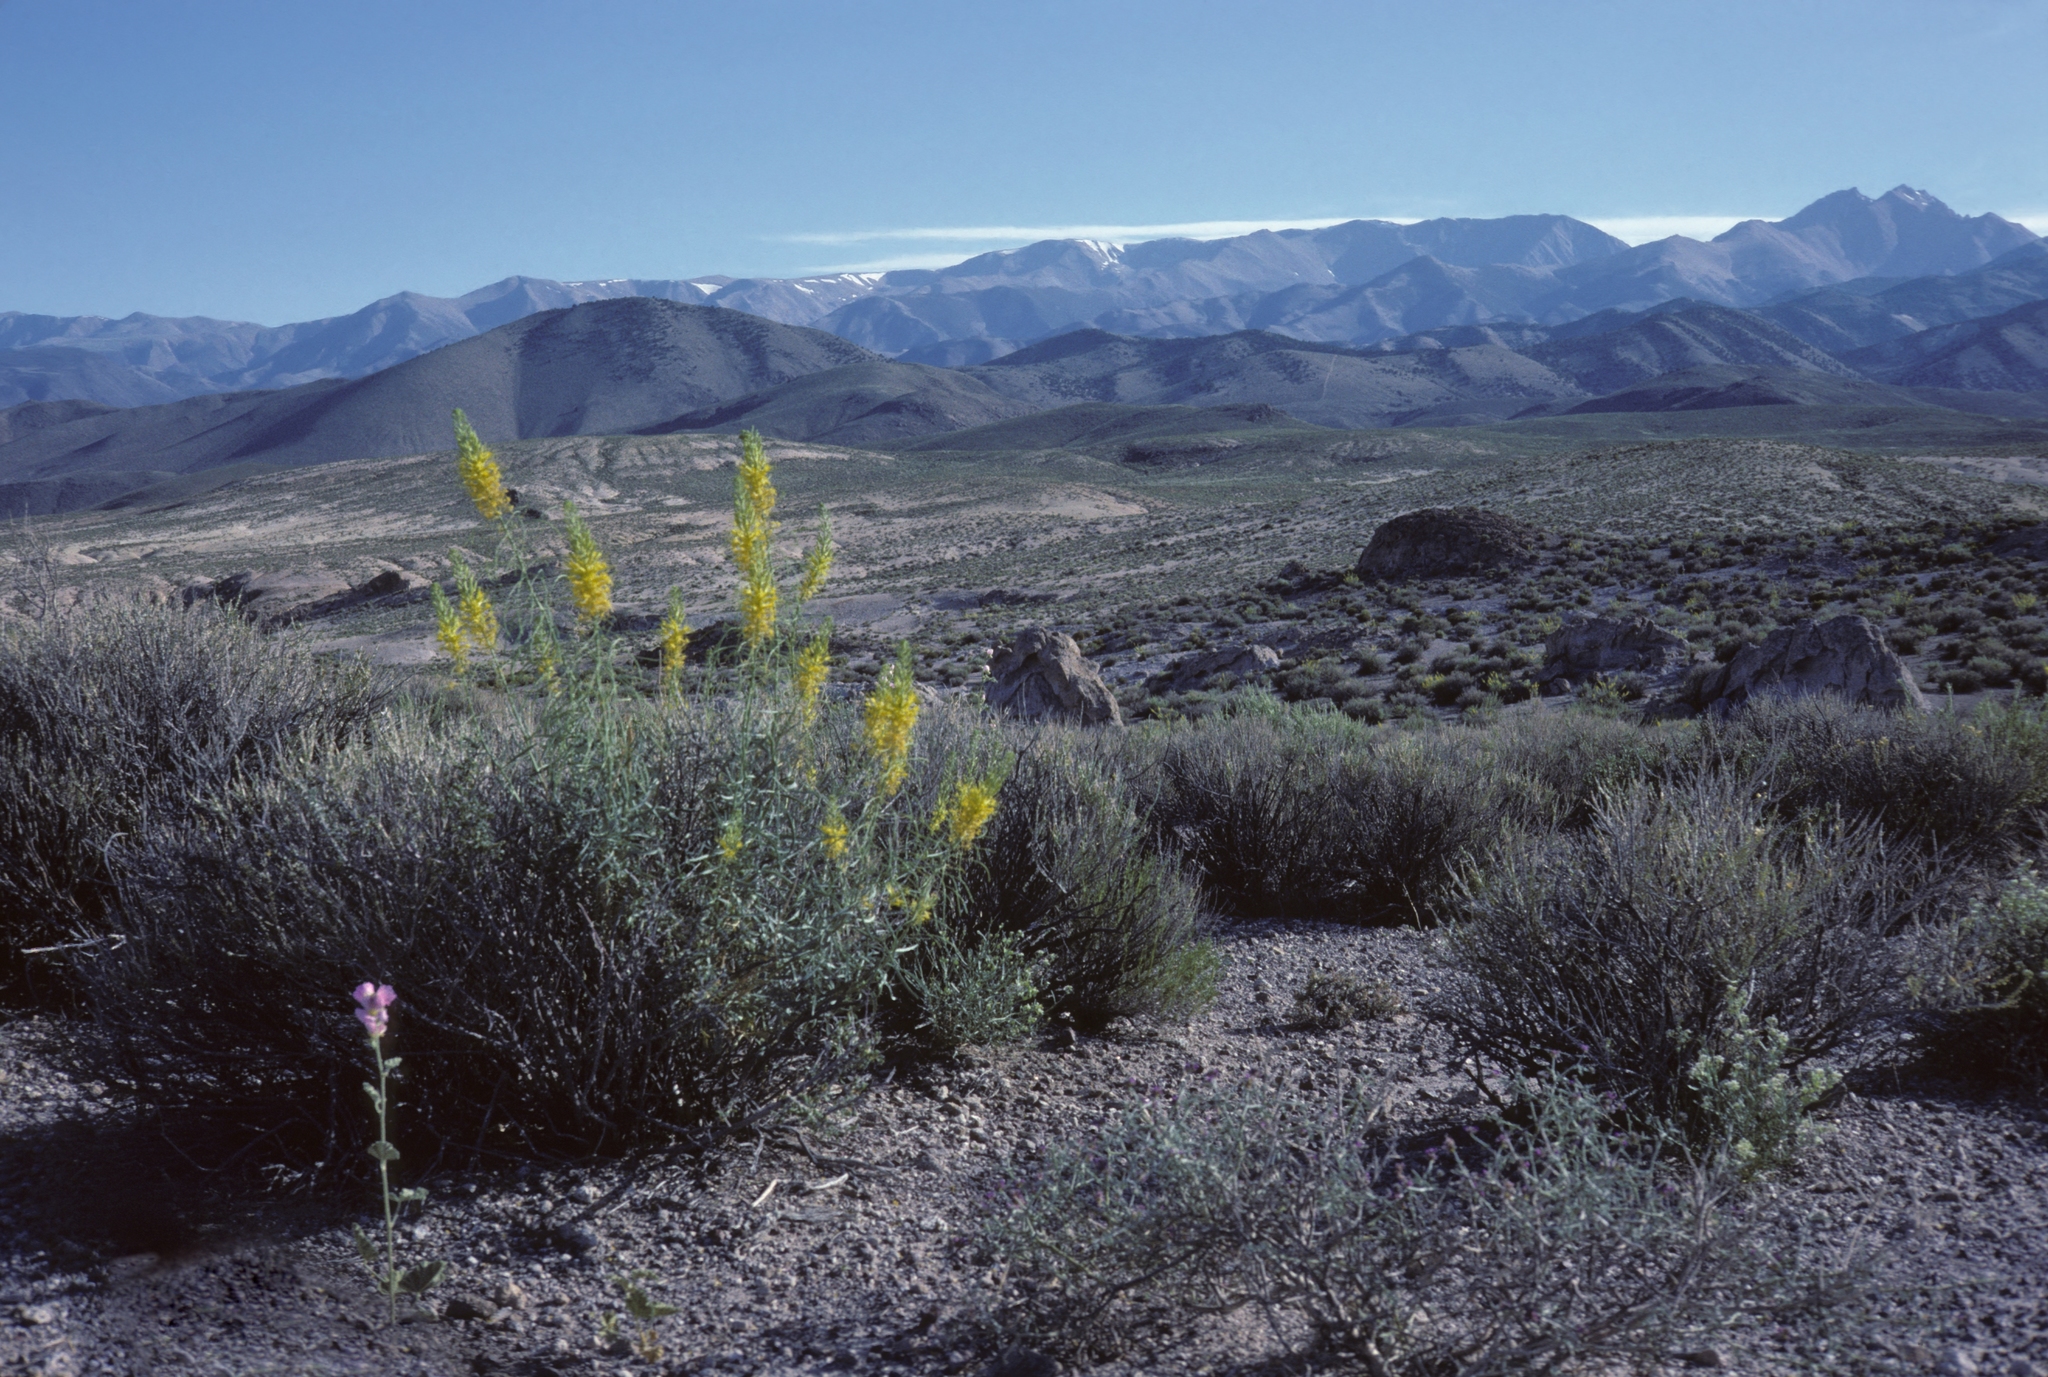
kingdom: Plantae
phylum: Tracheophyta
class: Magnoliopsida
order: Brassicales
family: Brassicaceae
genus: Stanleya
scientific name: Stanleya pinnata
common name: Prince's-plume
